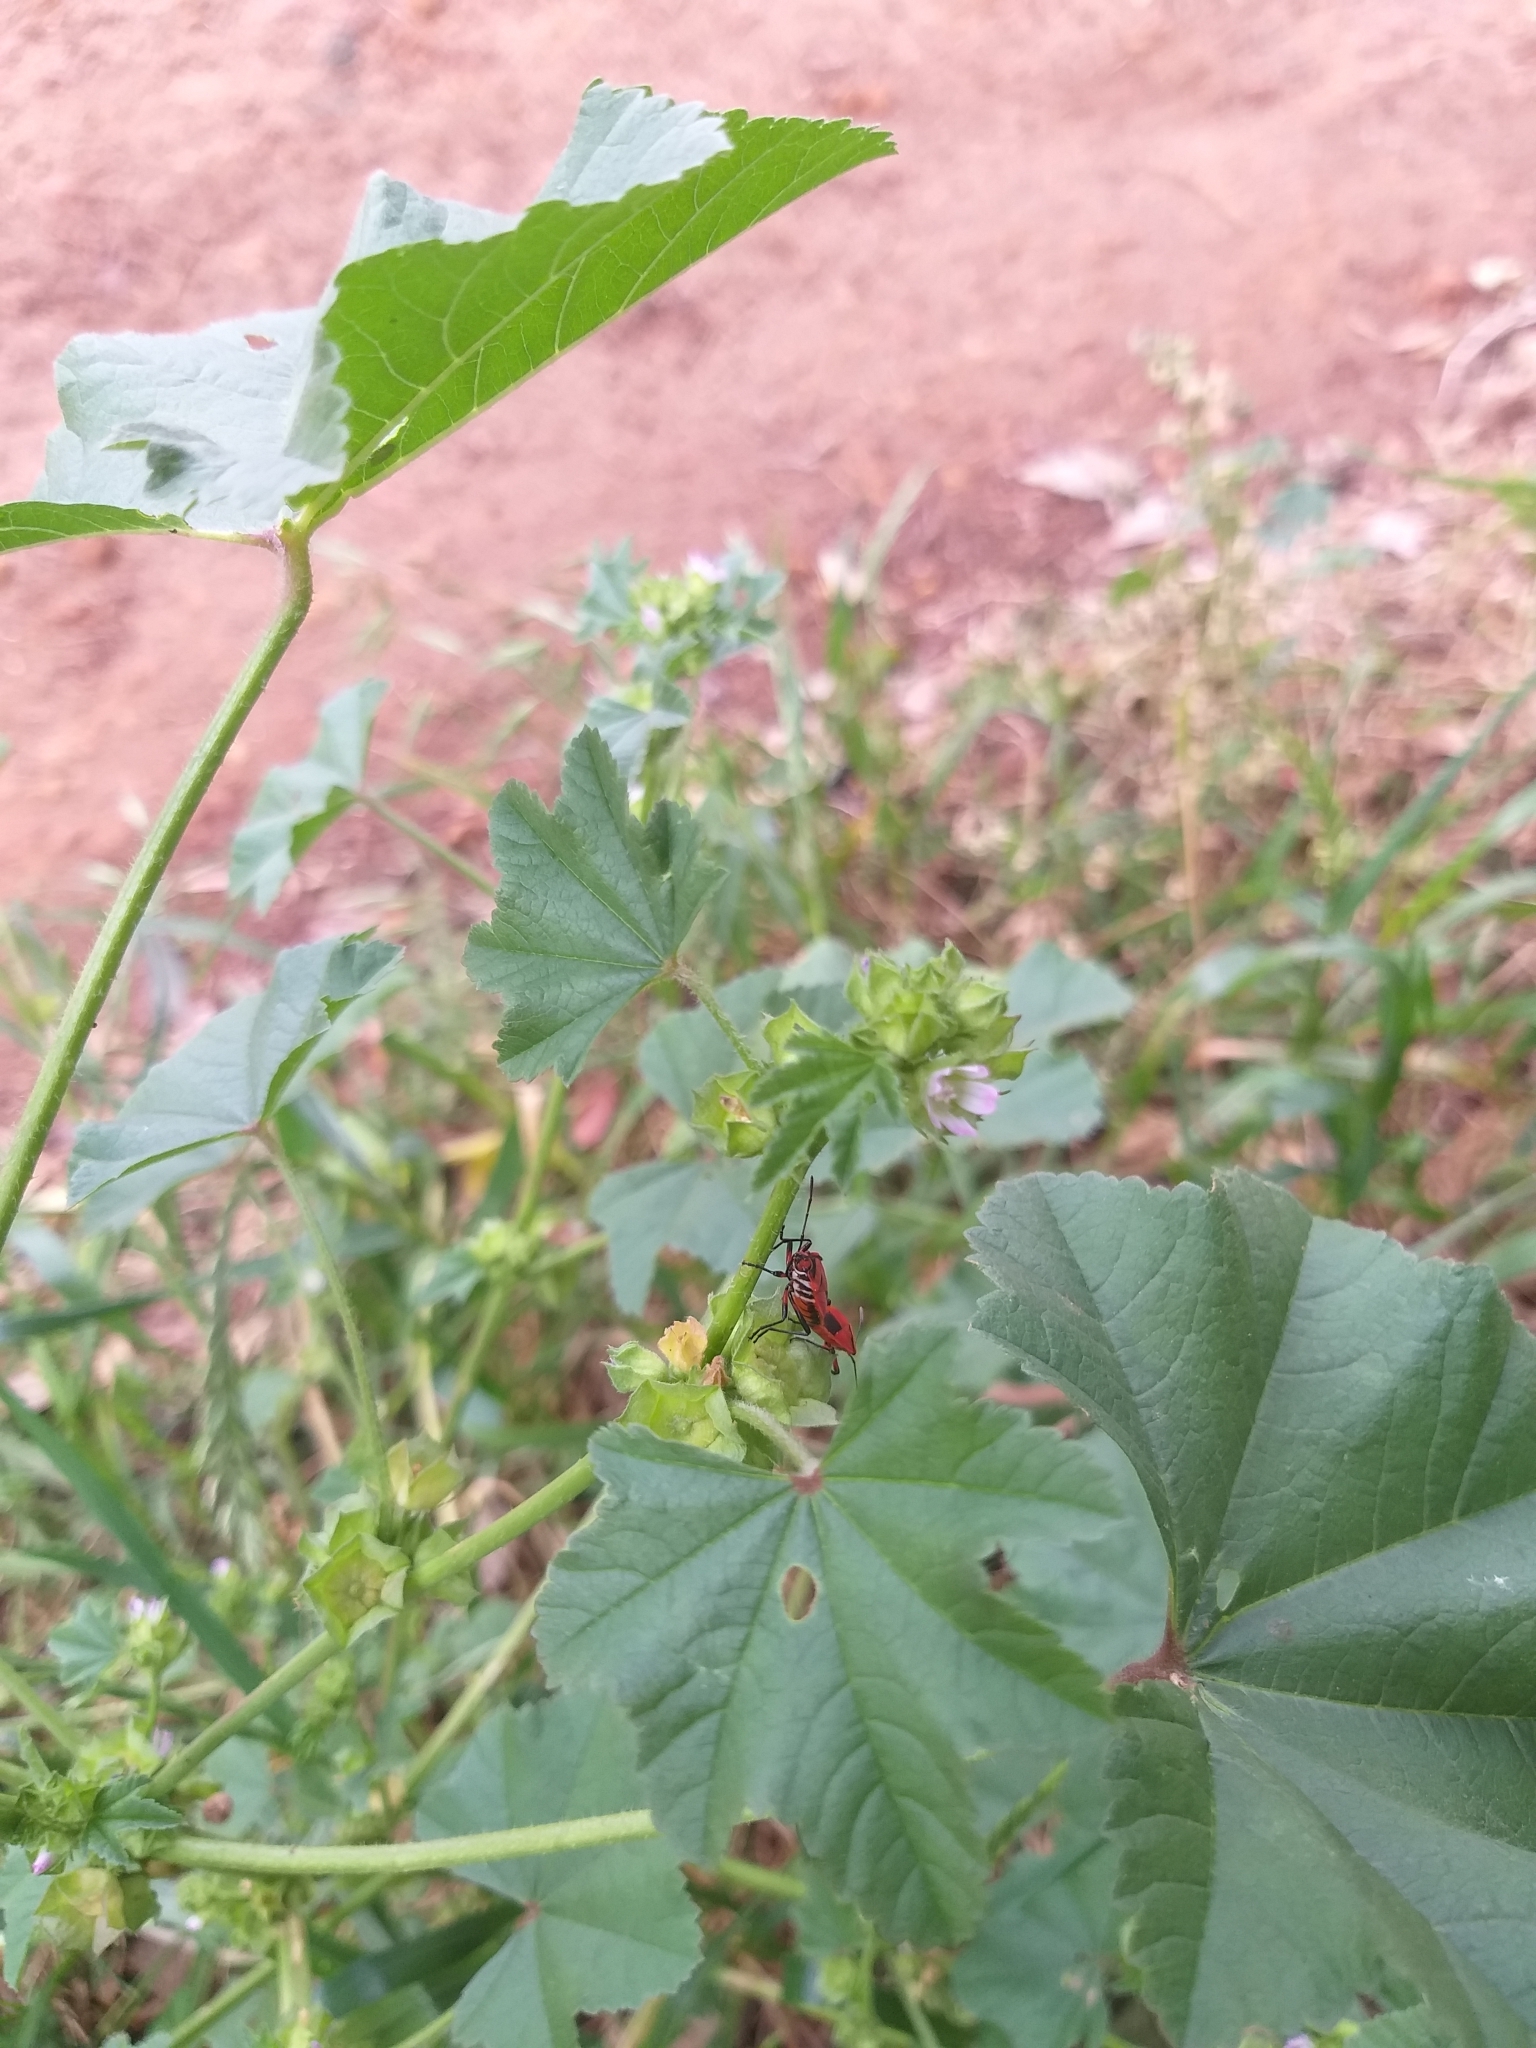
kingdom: Animalia
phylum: Arthropoda
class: Insecta
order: Hemiptera
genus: Cenaeus
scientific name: Cenaeus
